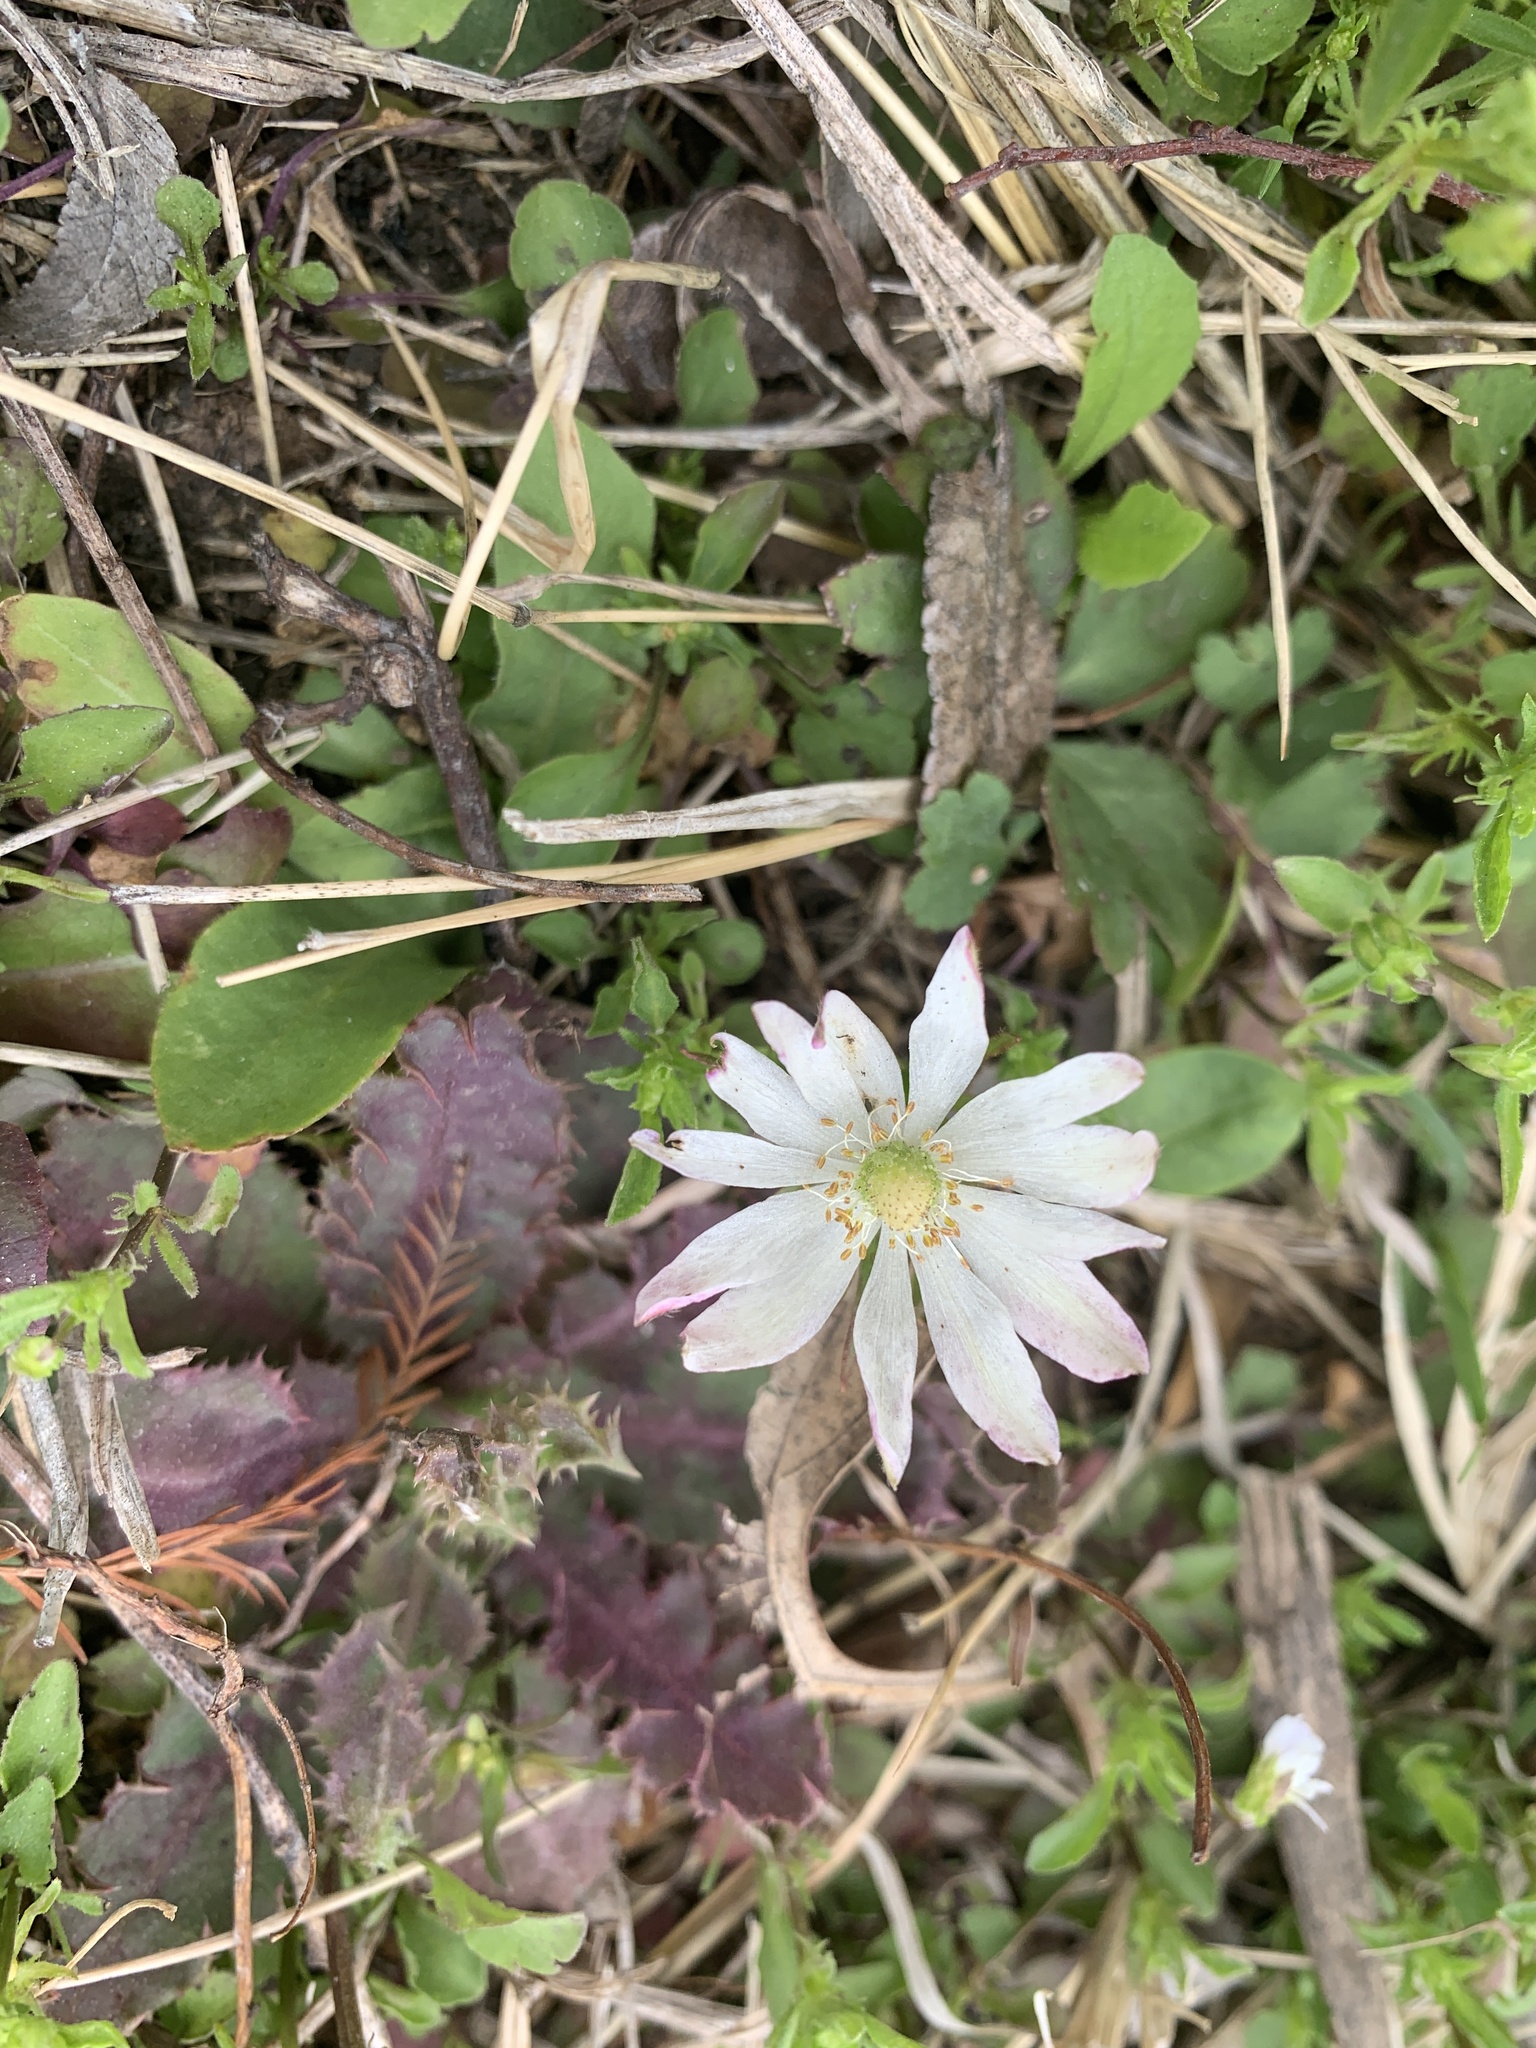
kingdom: Plantae
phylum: Tracheophyta
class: Magnoliopsida
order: Ranunculales
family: Ranunculaceae
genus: Anemone
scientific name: Anemone berlandieri
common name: Ten-petal anemone
